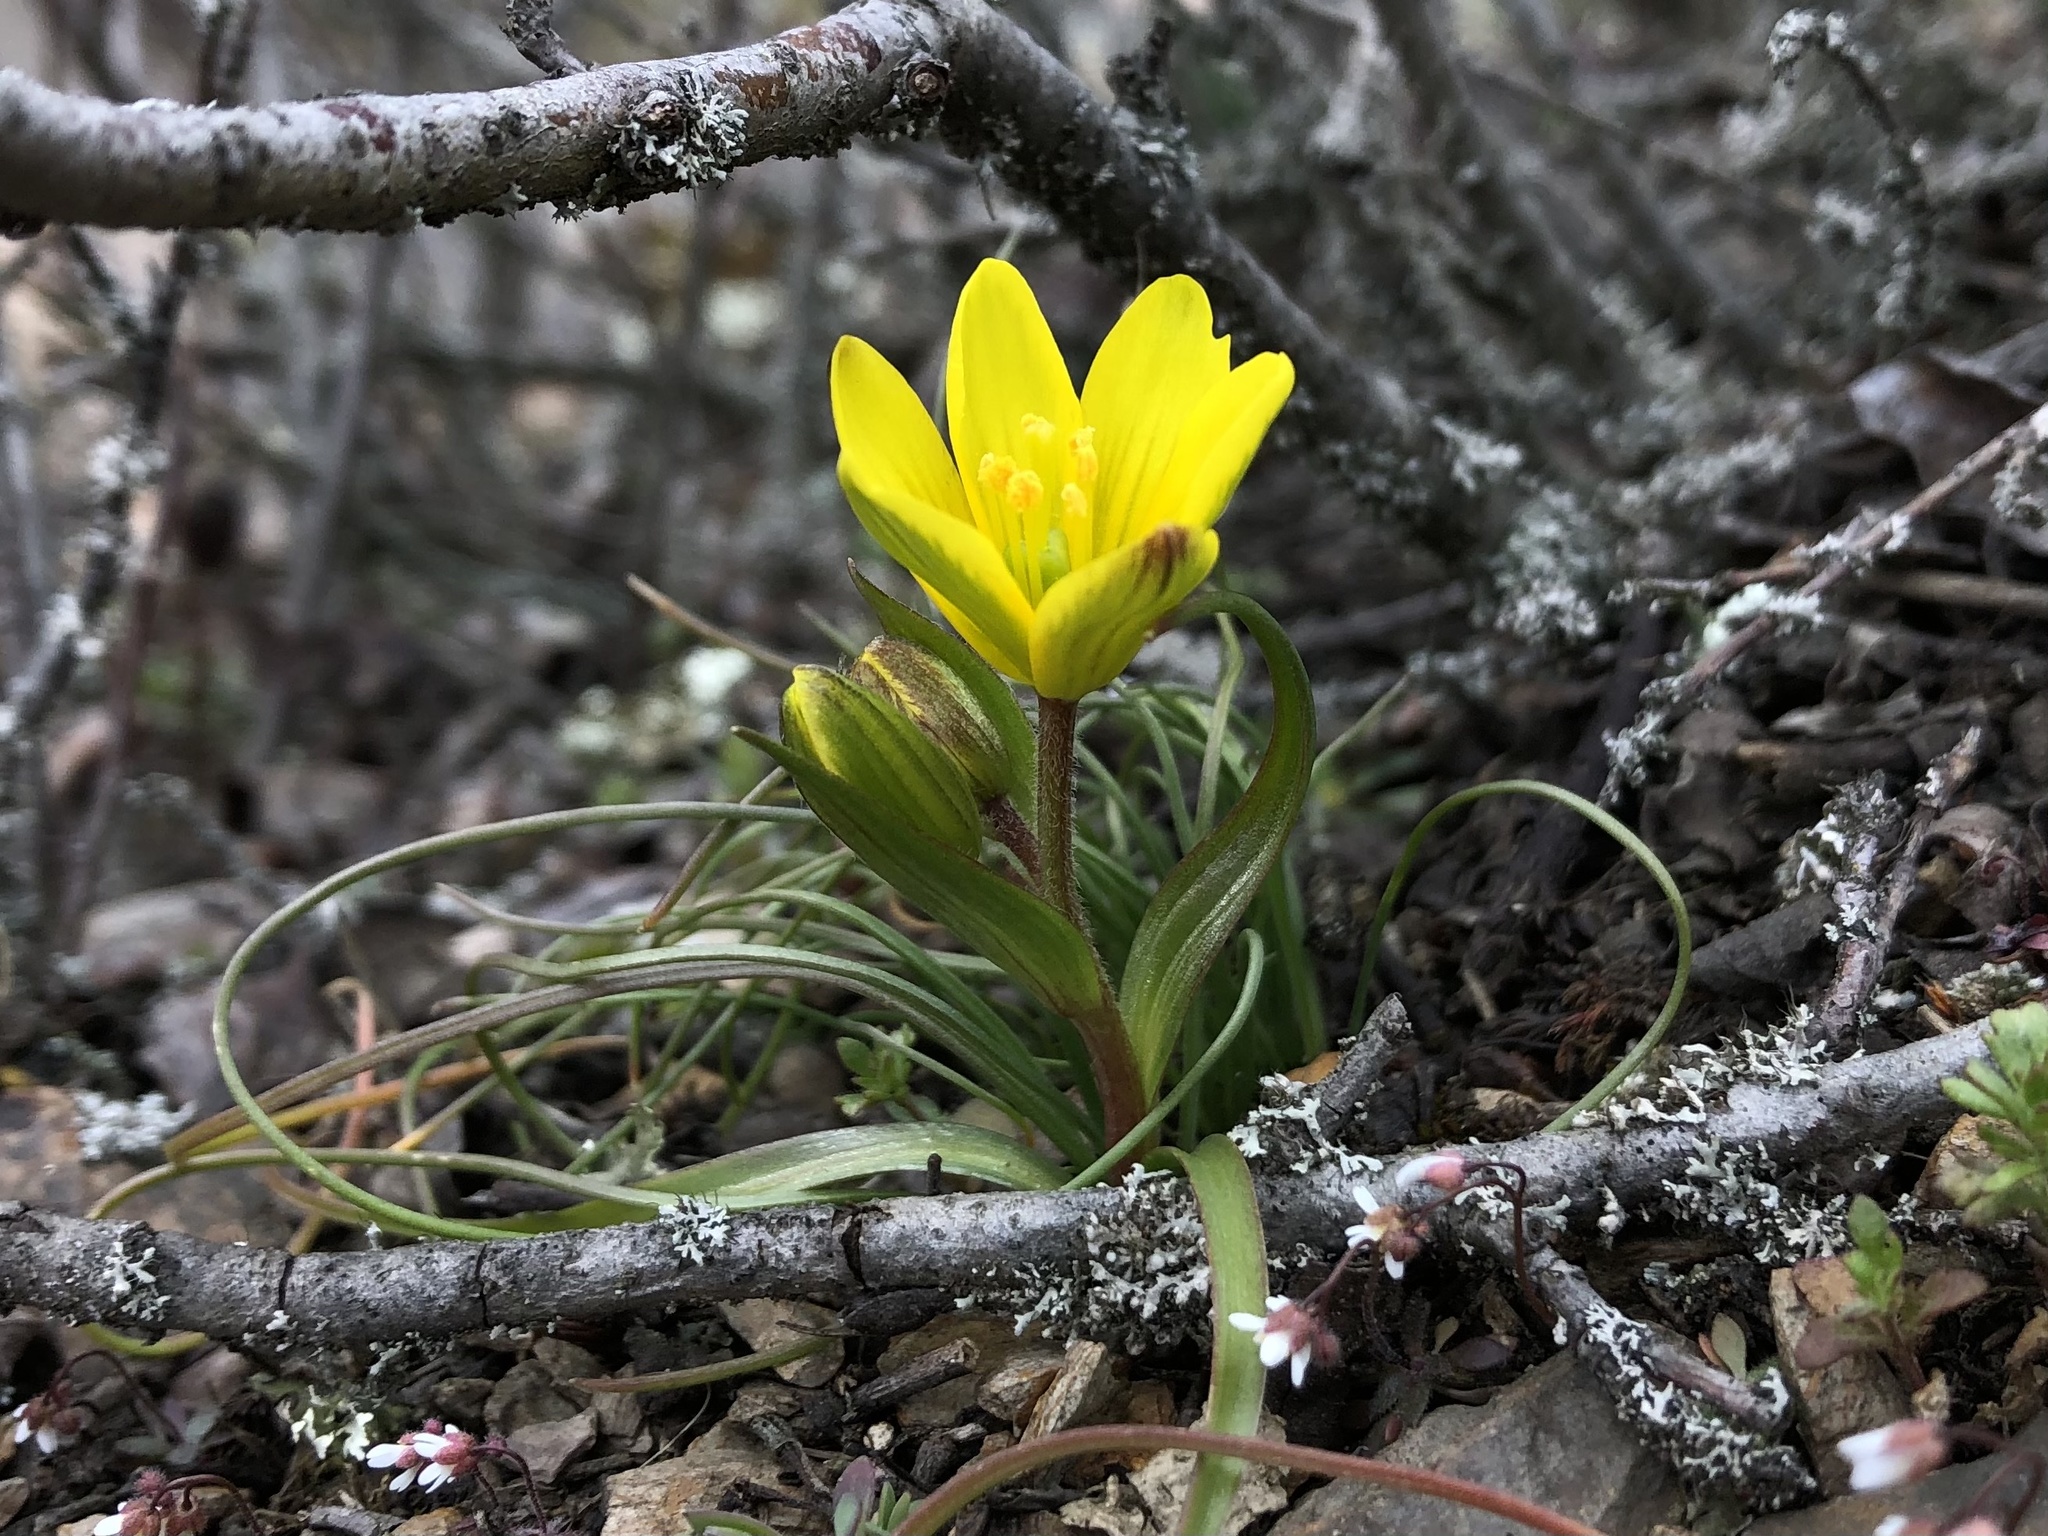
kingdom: Plantae
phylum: Tracheophyta
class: Liliopsida
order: Liliales
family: Liliaceae
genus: Gagea
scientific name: Gagea bohemica
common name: Early star-of-bethlehem
